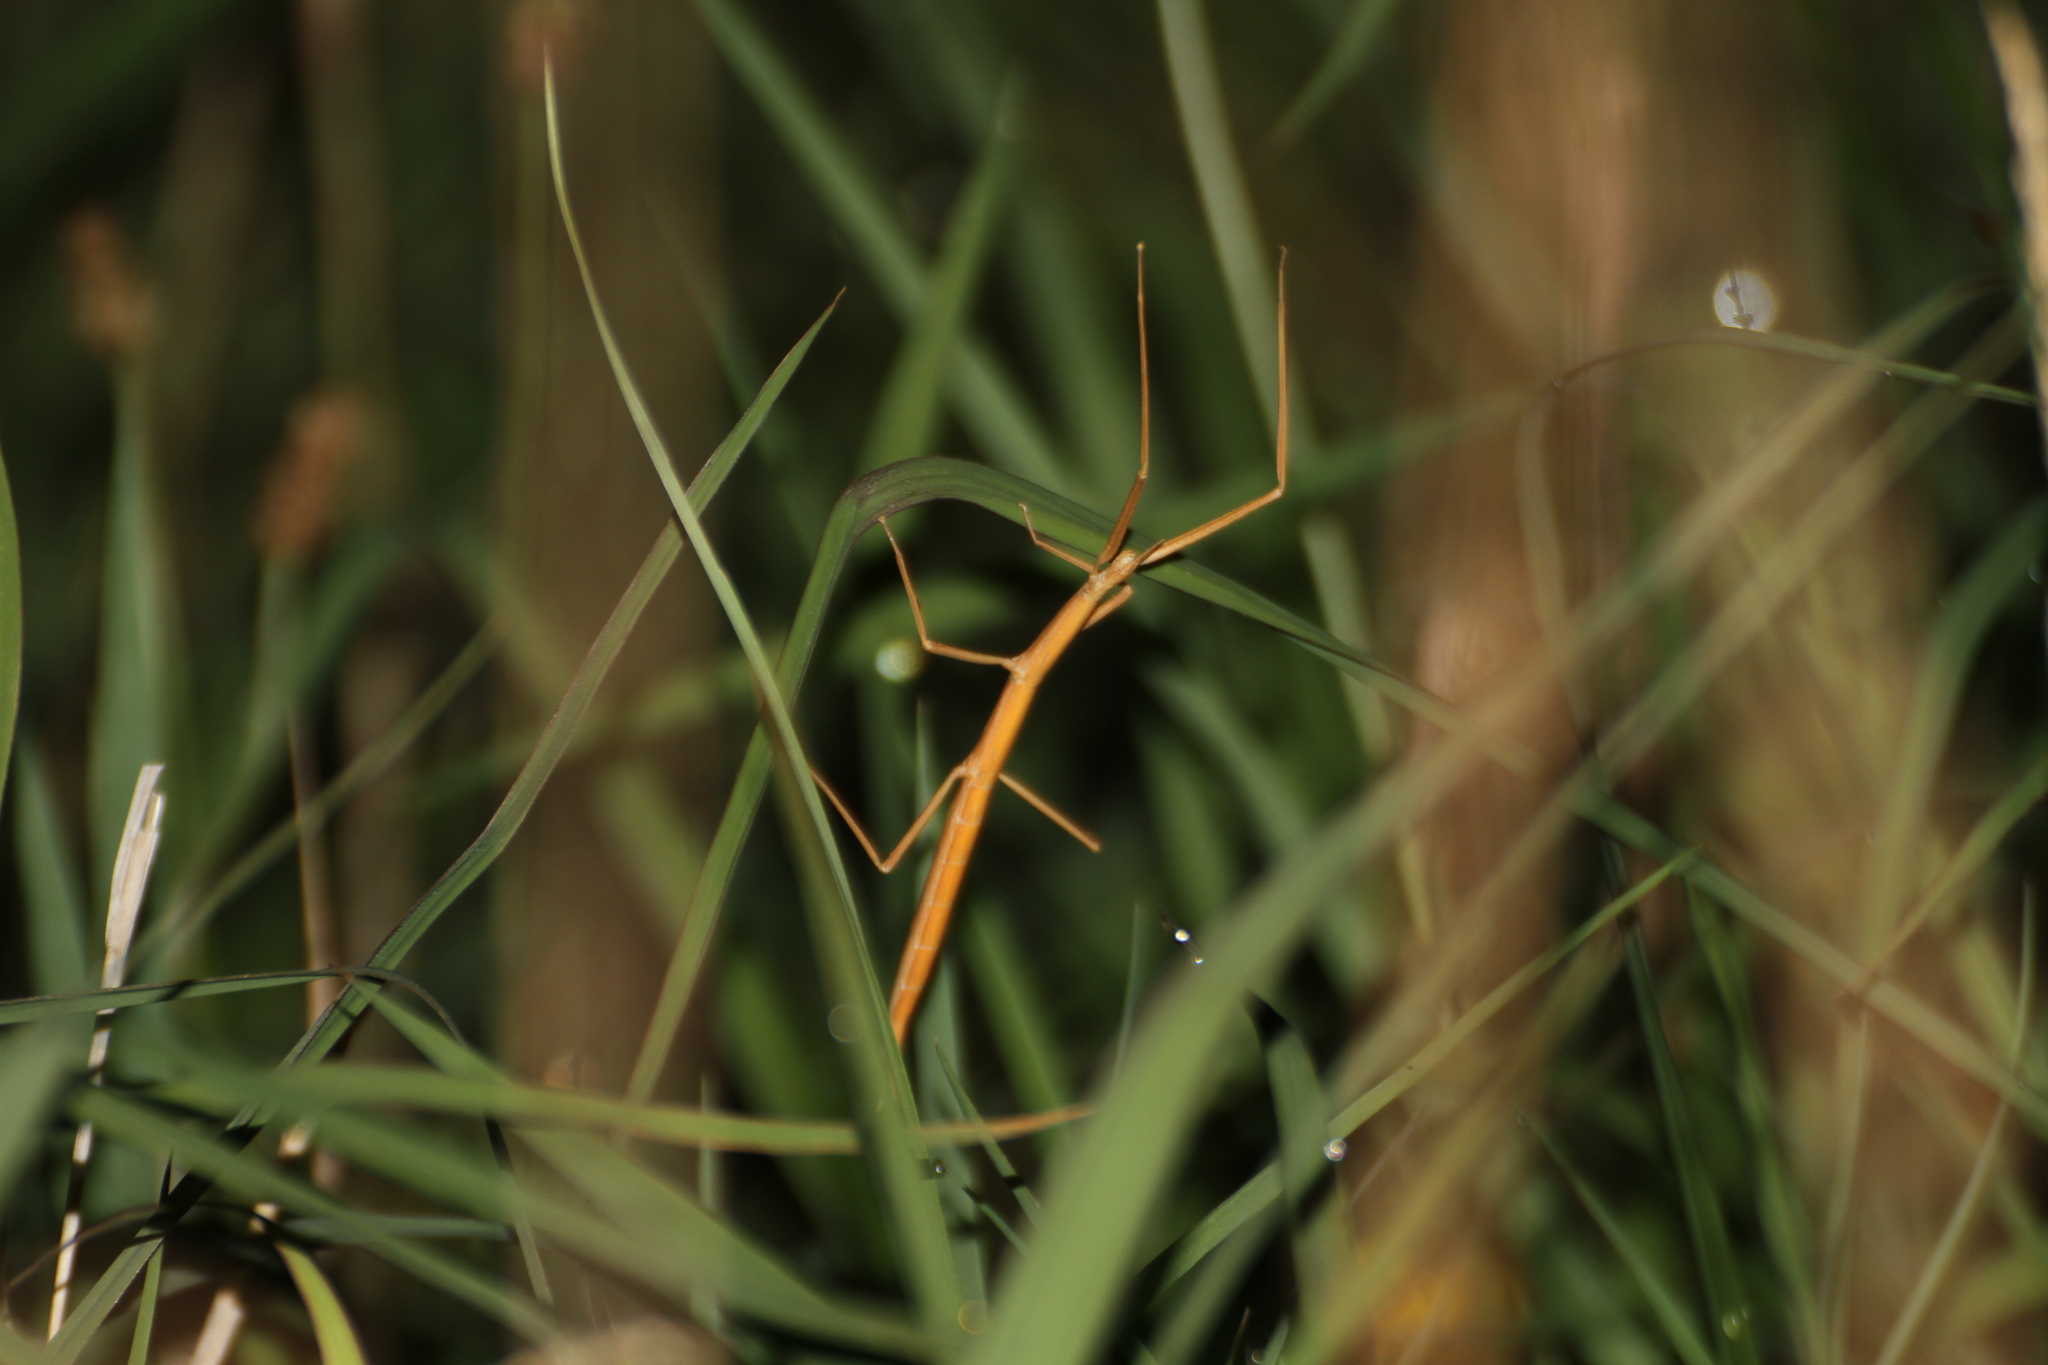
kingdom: Animalia
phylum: Arthropoda
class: Insecta
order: Phasmida
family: Bacillidae
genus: Clonopsis
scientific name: Clonopsis gallica
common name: French stick insect
